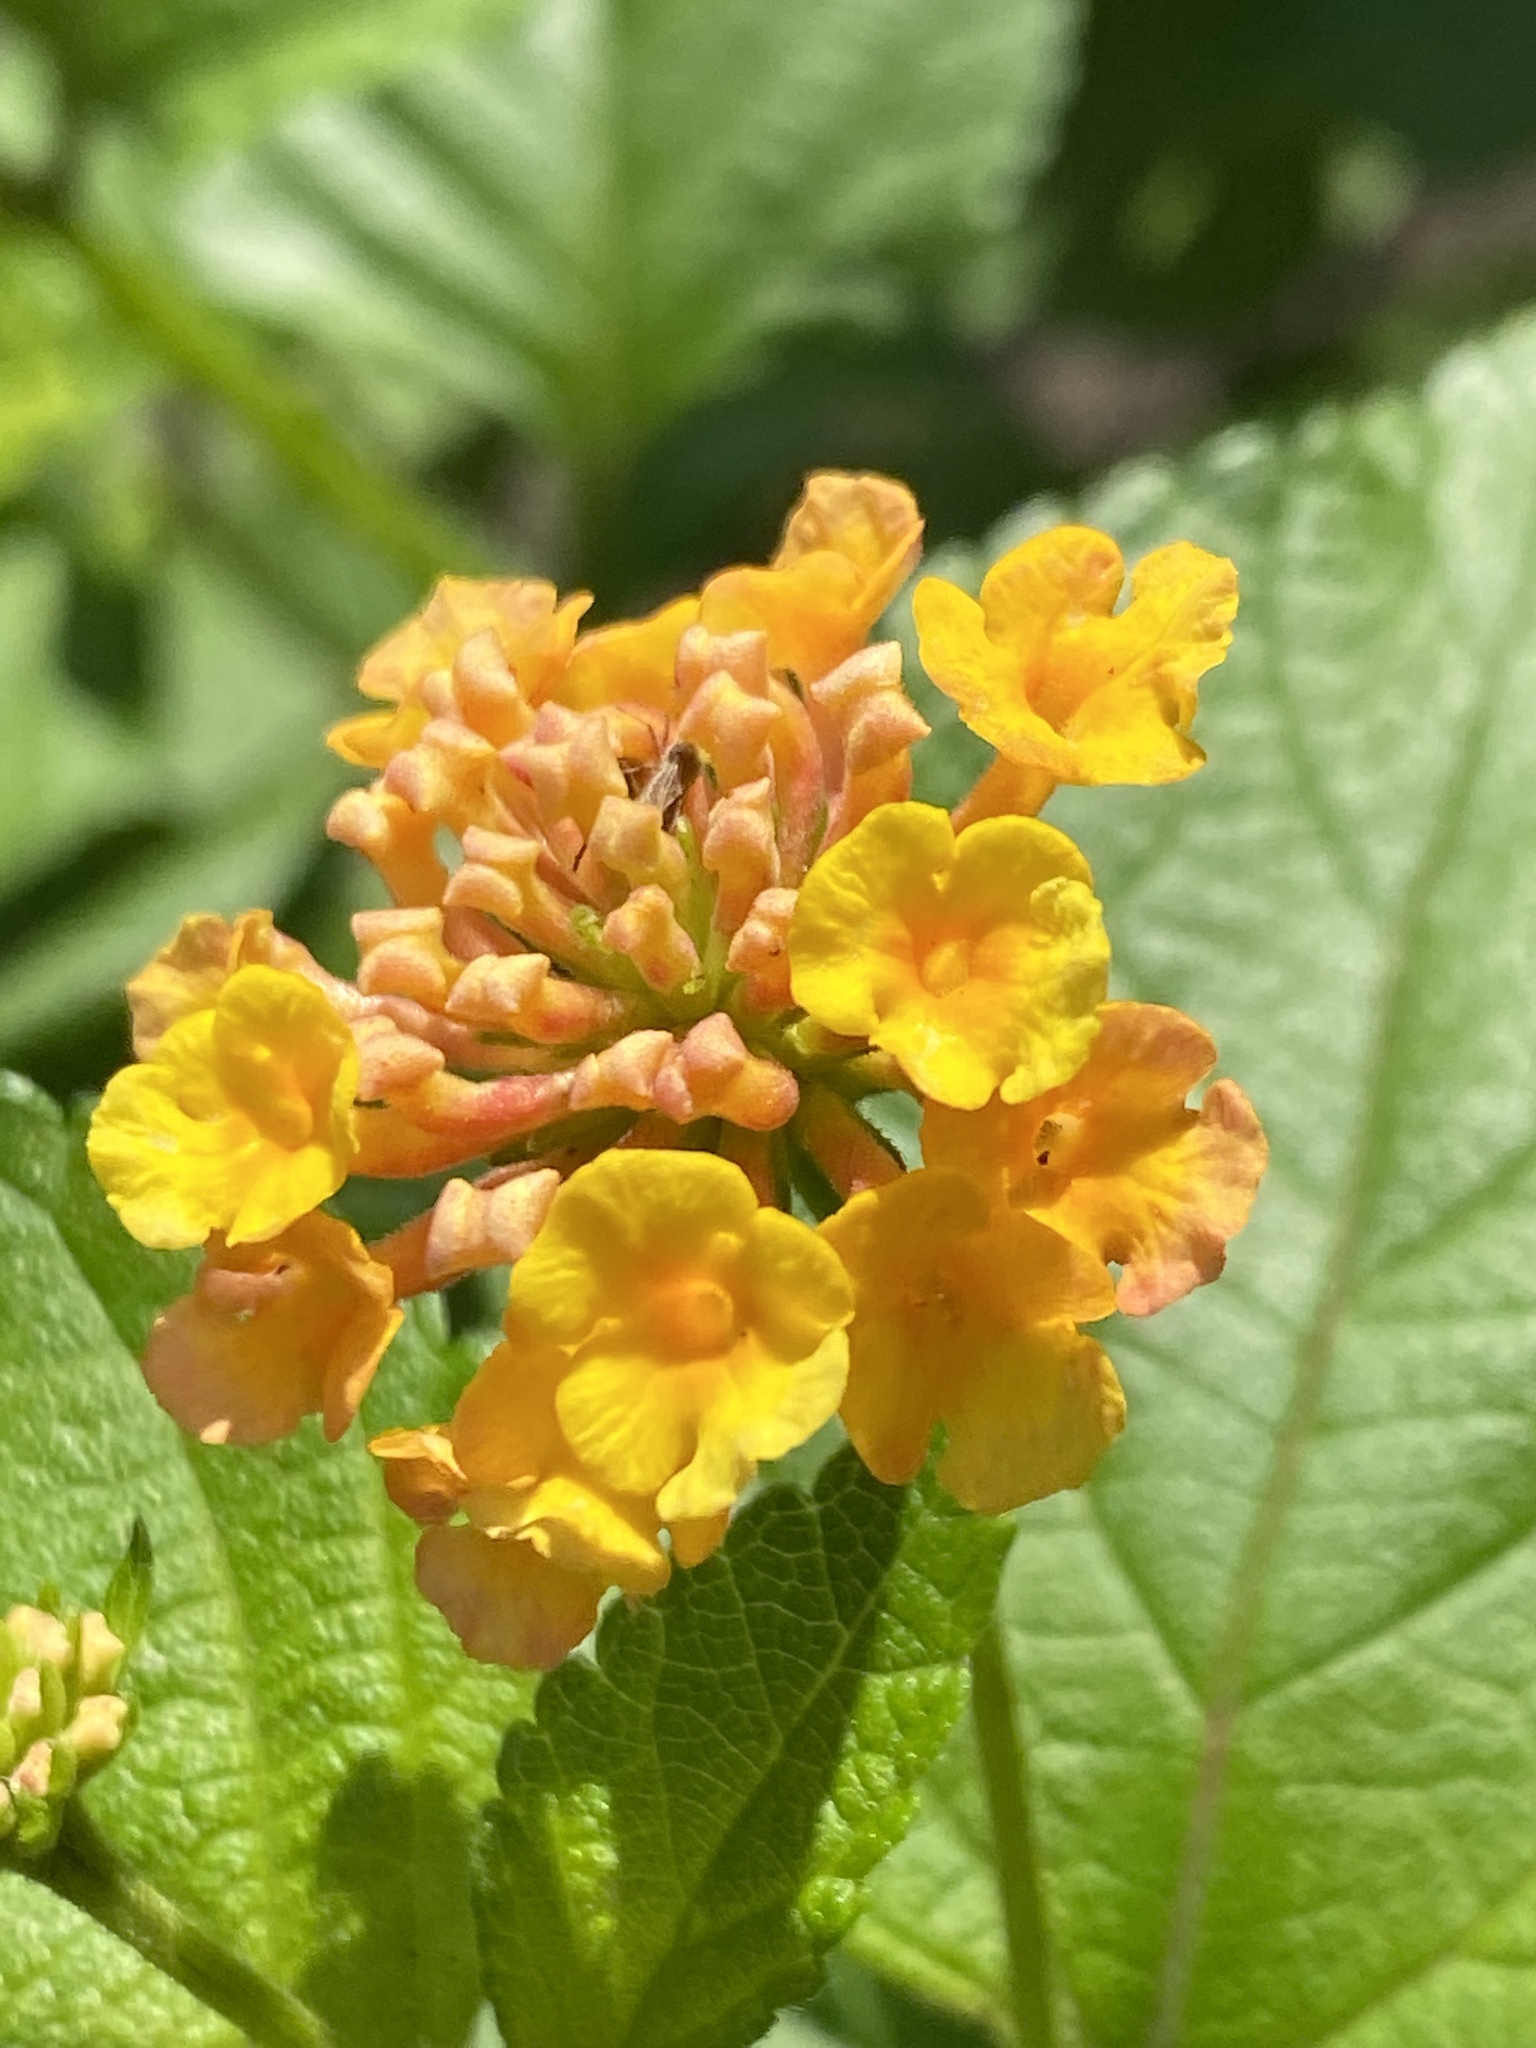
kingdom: Plantae
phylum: Tracheophyta
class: Magnoliopsida
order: Lamiales
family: Verbenaceae
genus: Lantana
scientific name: Lantana strigocamara
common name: Lantana
